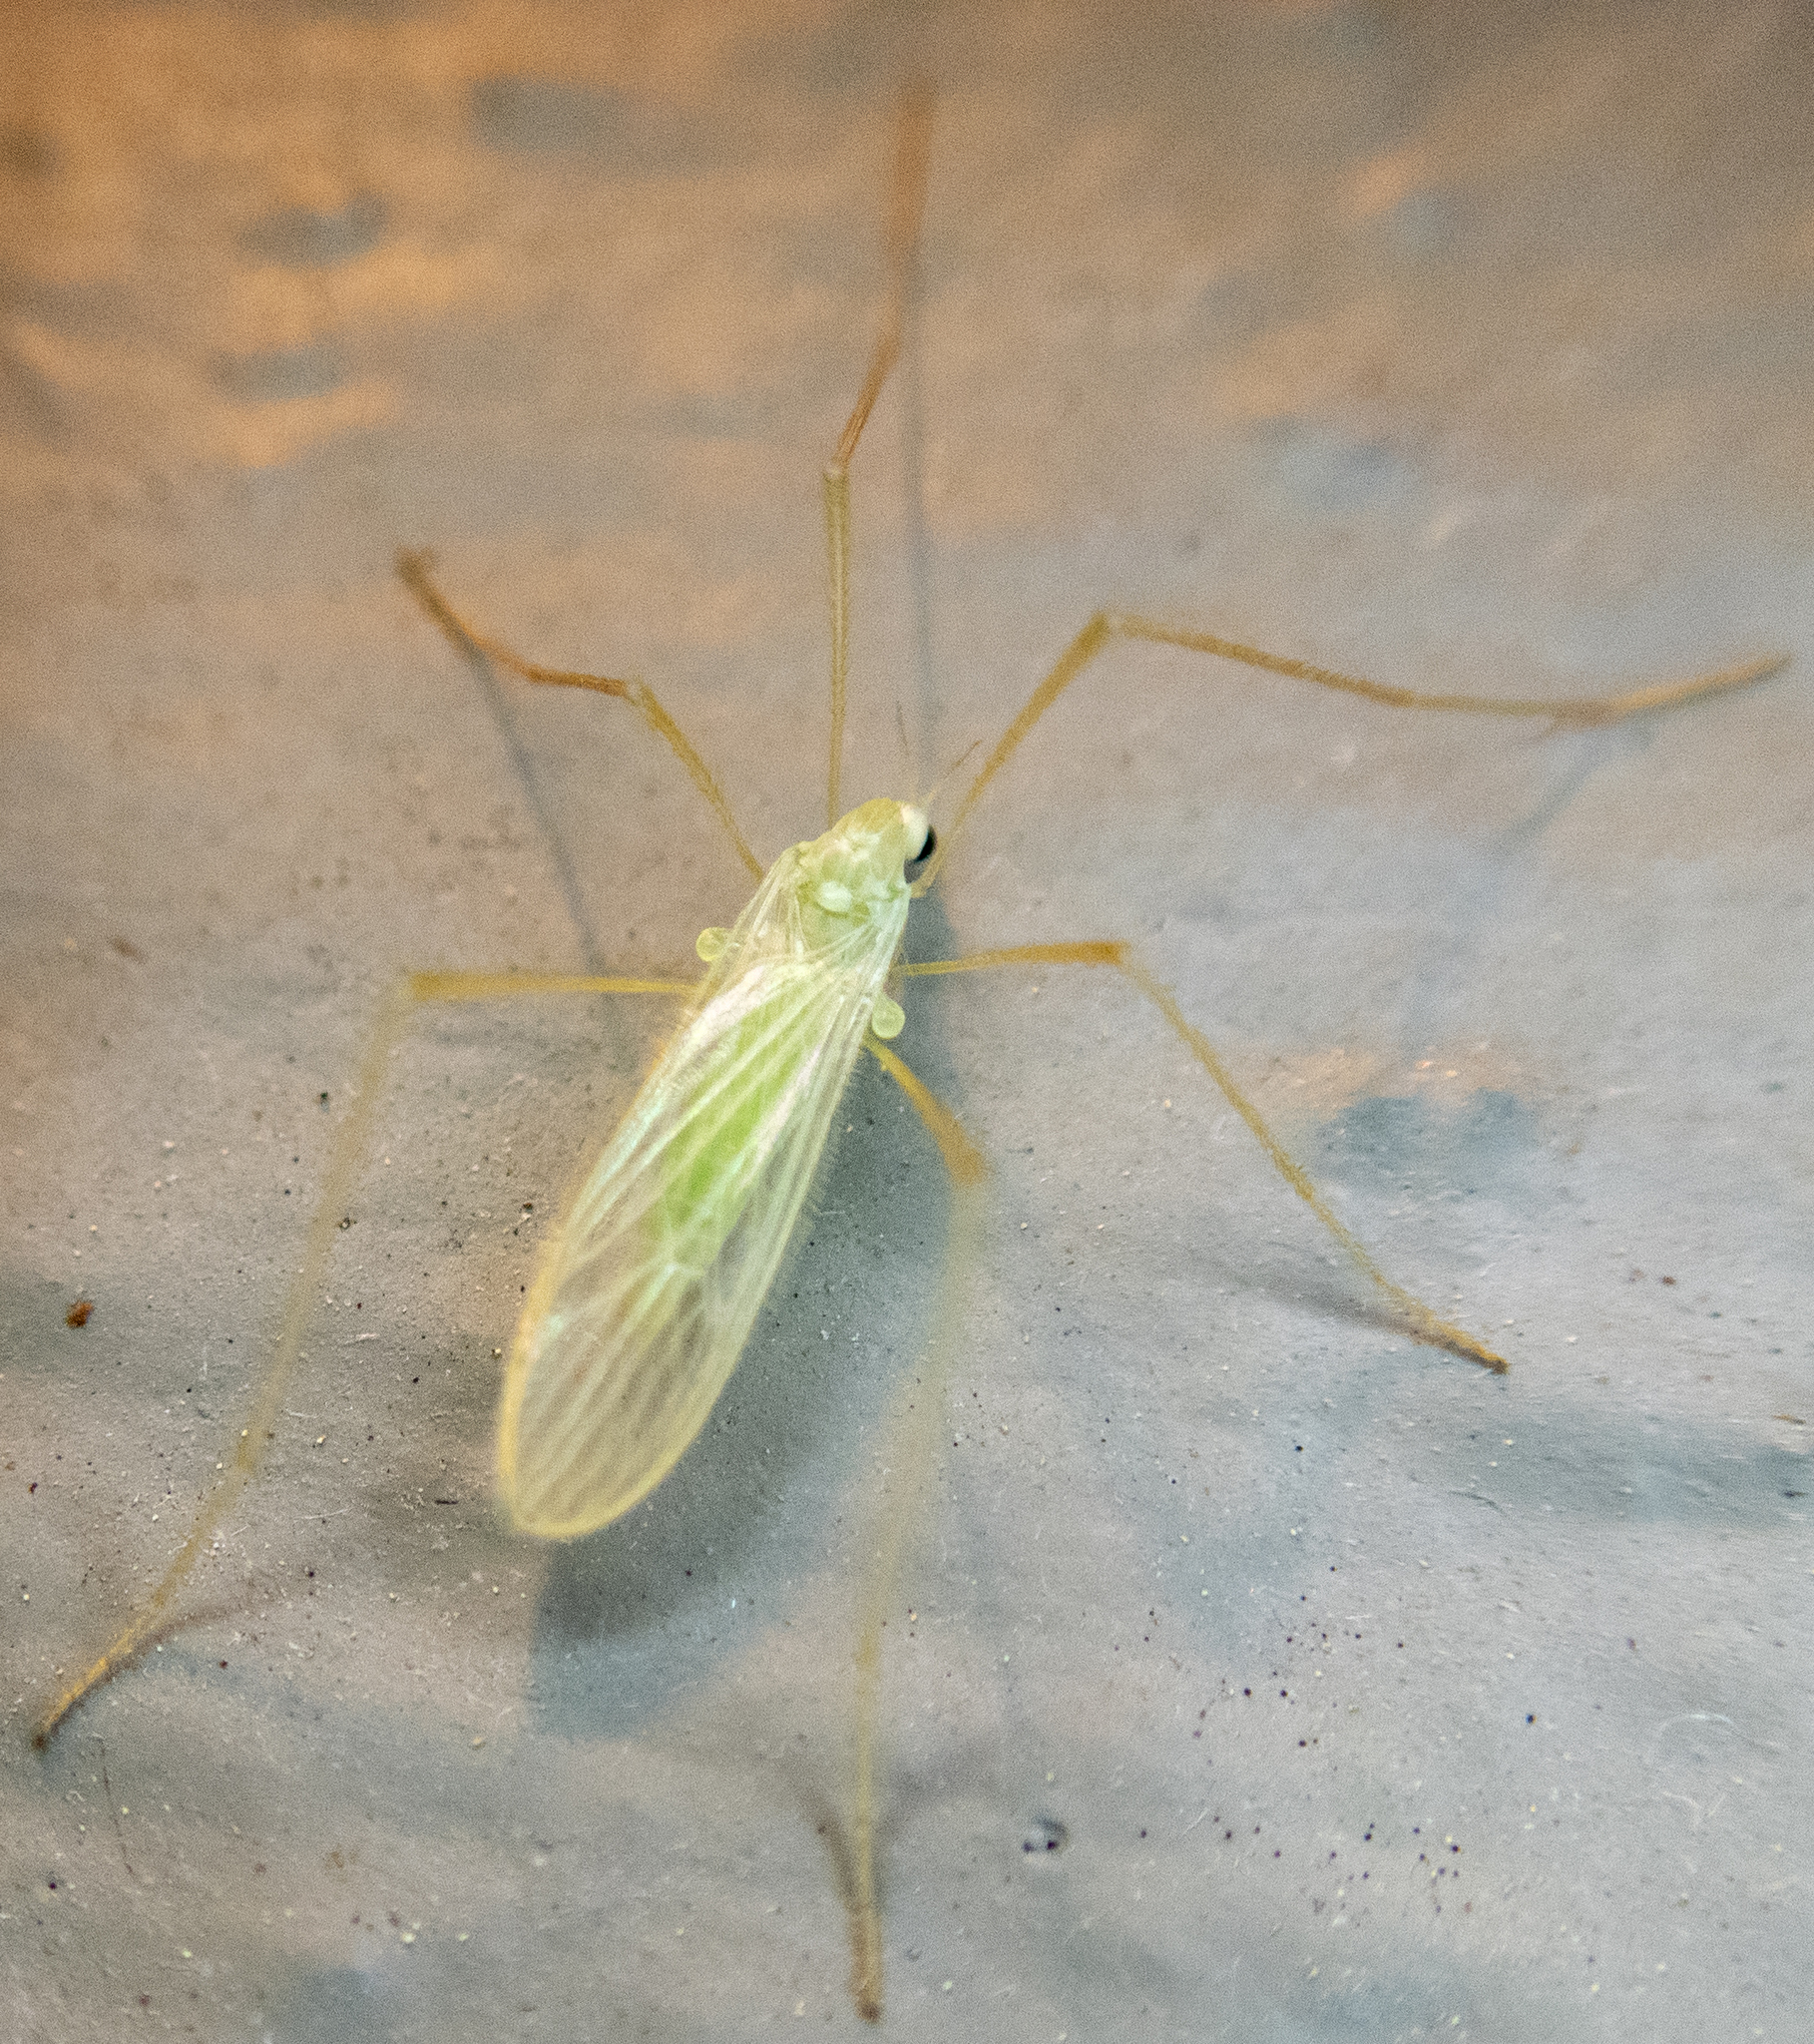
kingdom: Animalia
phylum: Arthropoda
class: Insecta
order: Diptera
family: Limoniidae
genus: Erioptera
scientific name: Erioptera
